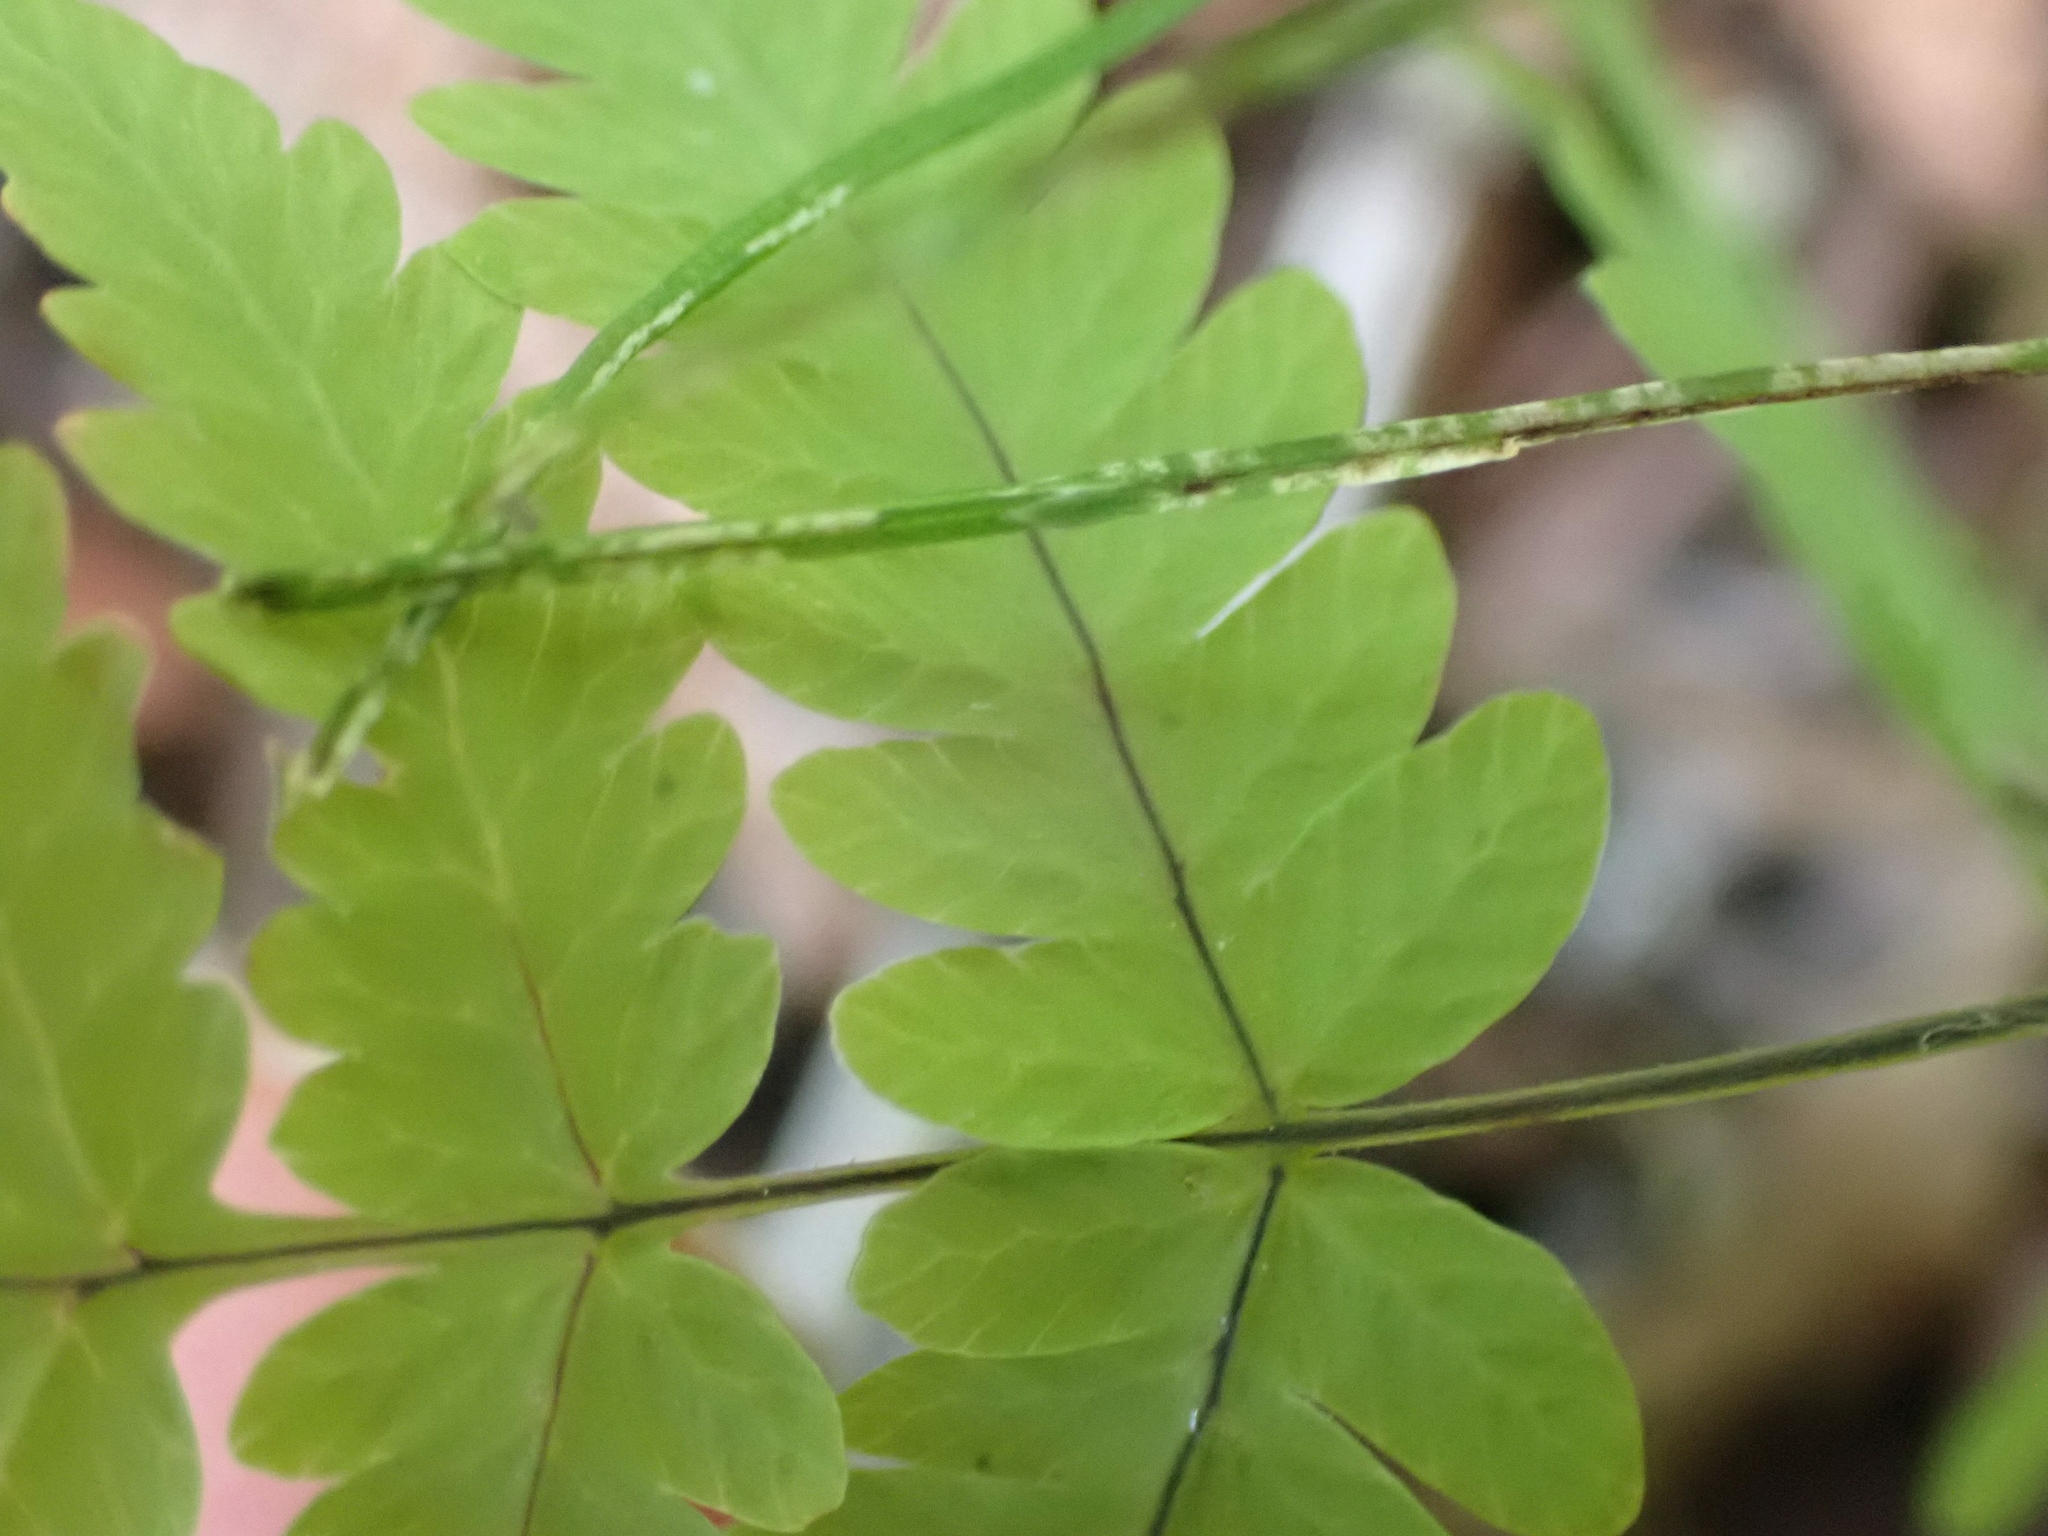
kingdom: Plantae
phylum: Tracheophyta
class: Polypodiopsida
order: Polypodiales
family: Cystopteridaceae
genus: Gymnocarpium
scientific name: Gymnocarpium dryopteris
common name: Oak fern
